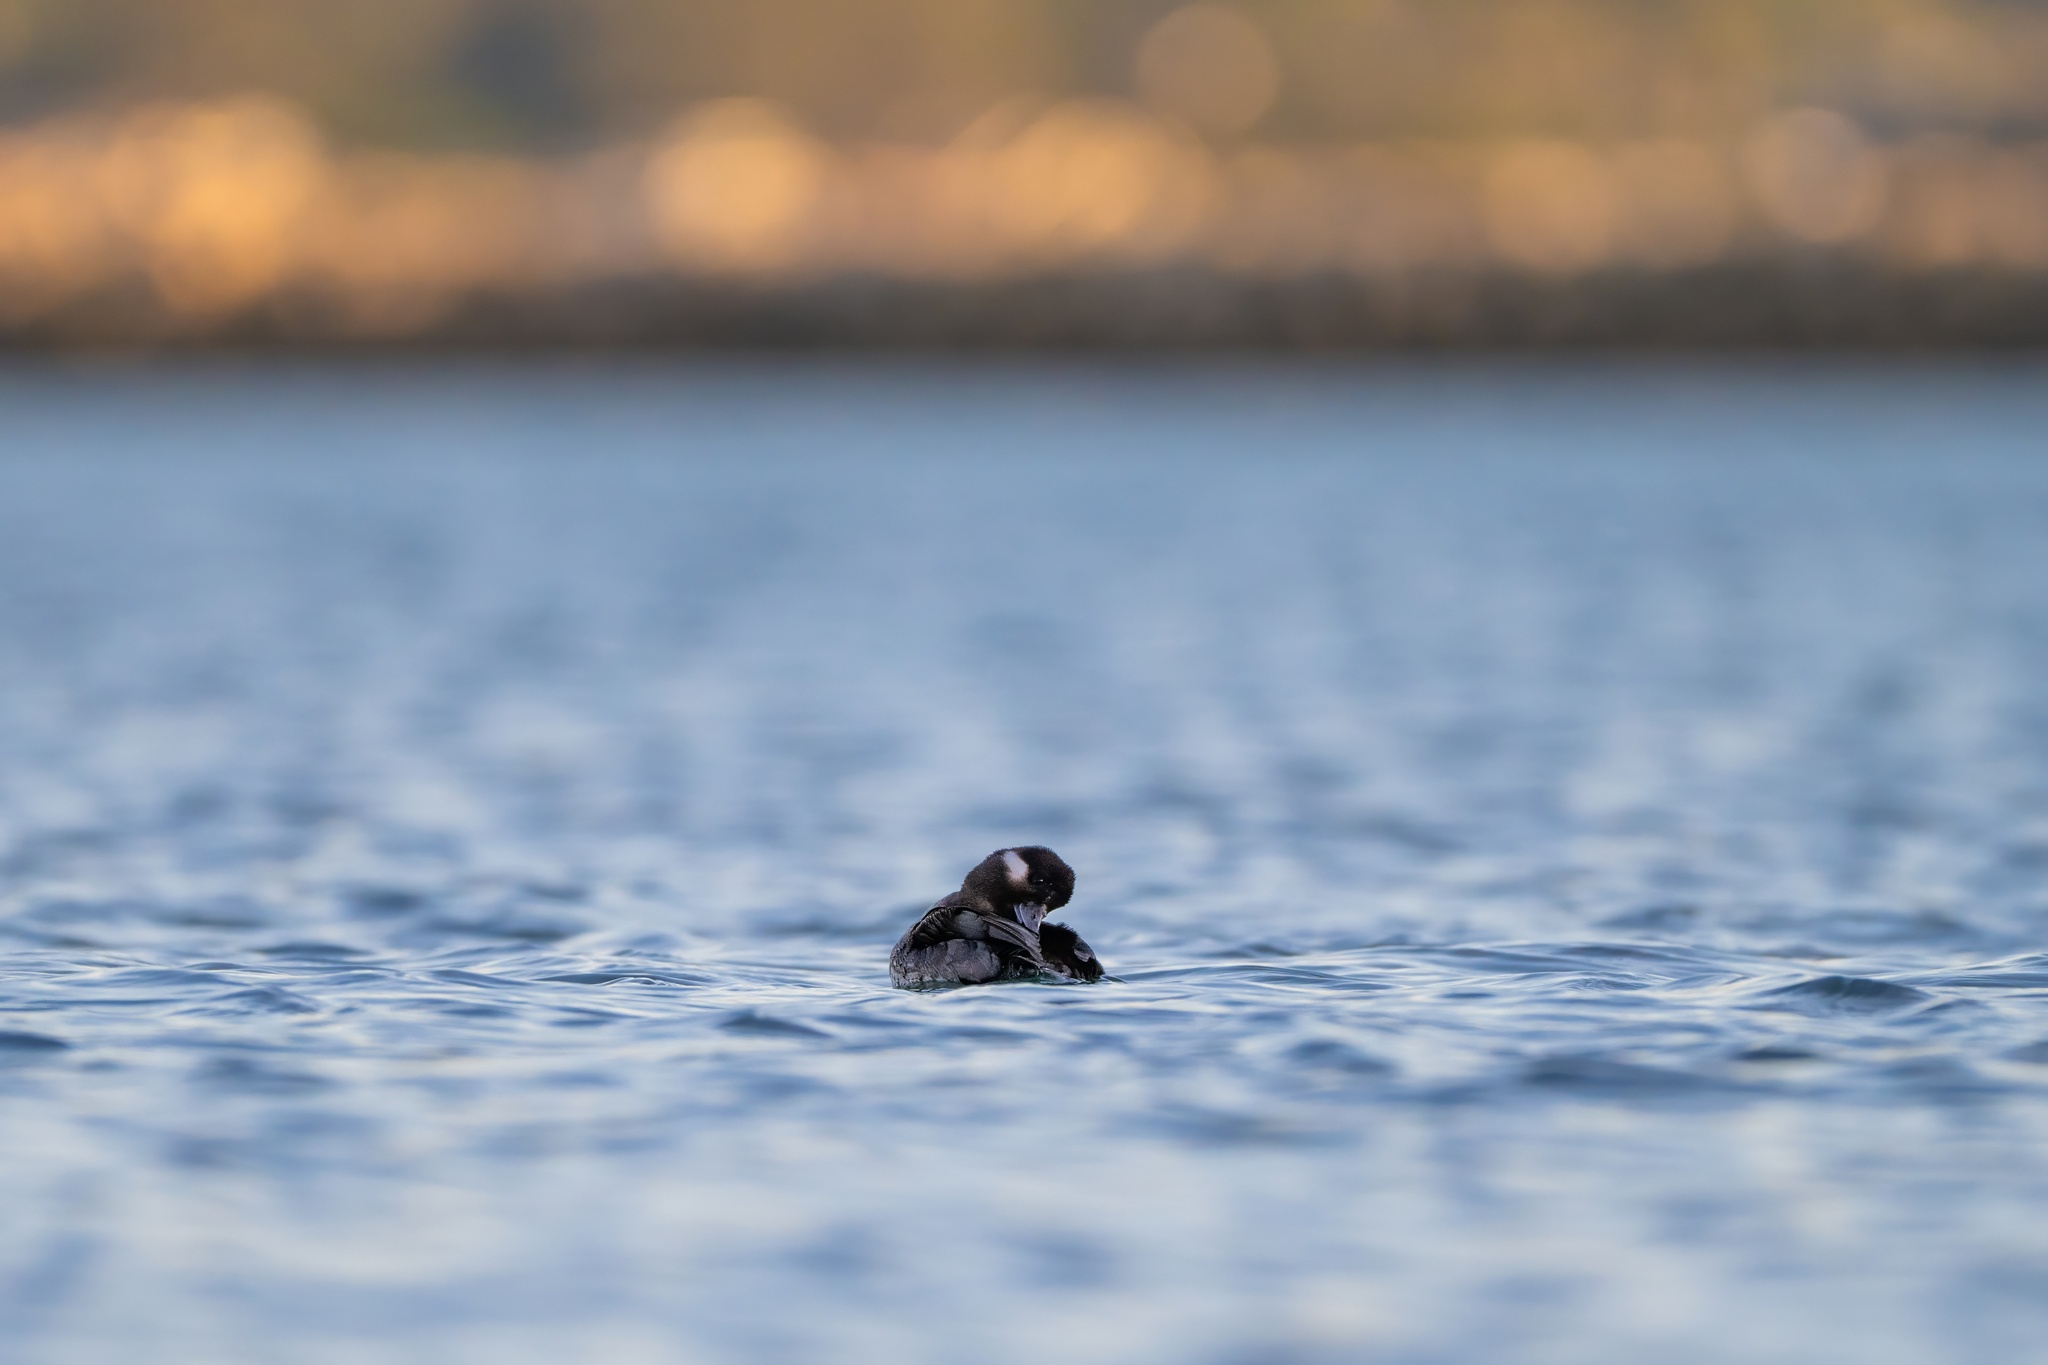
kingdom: Animalia
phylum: Chordata
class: Aves
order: Anseriformes
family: Anatidae
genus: Bucephala
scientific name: Bucephala albeola
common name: Bufflehead
